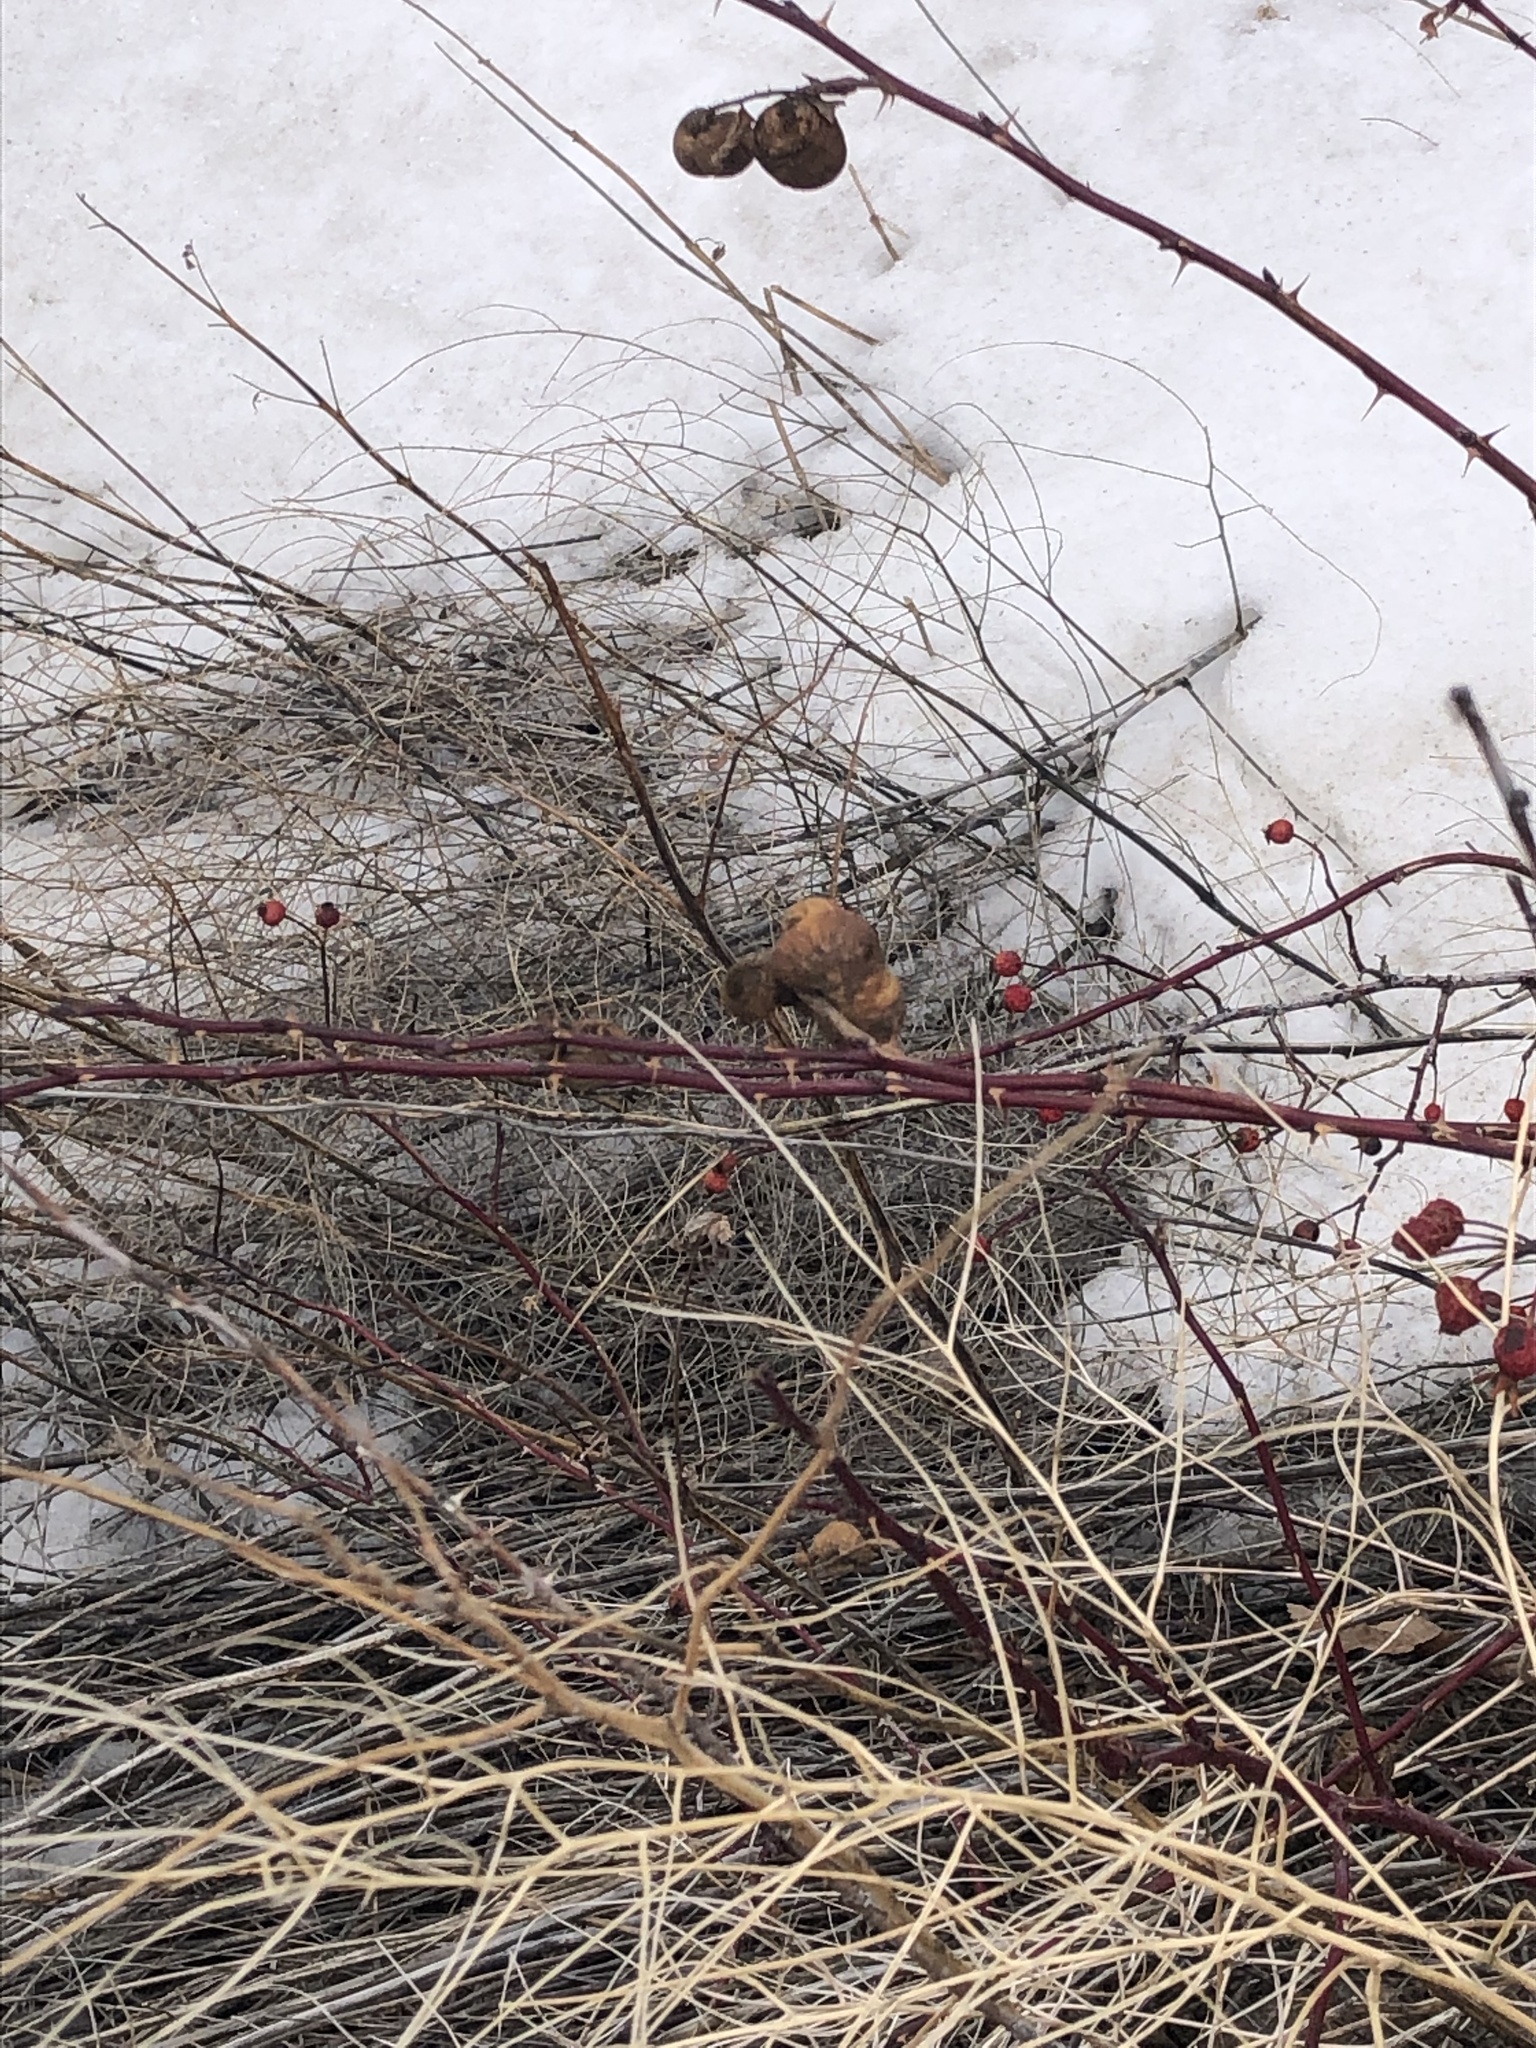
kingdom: Animalia
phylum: Arthropoda
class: Insecta
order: Hymenoptera
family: Cynipidae
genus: Diplolepis
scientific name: Diplolepis variabilis
